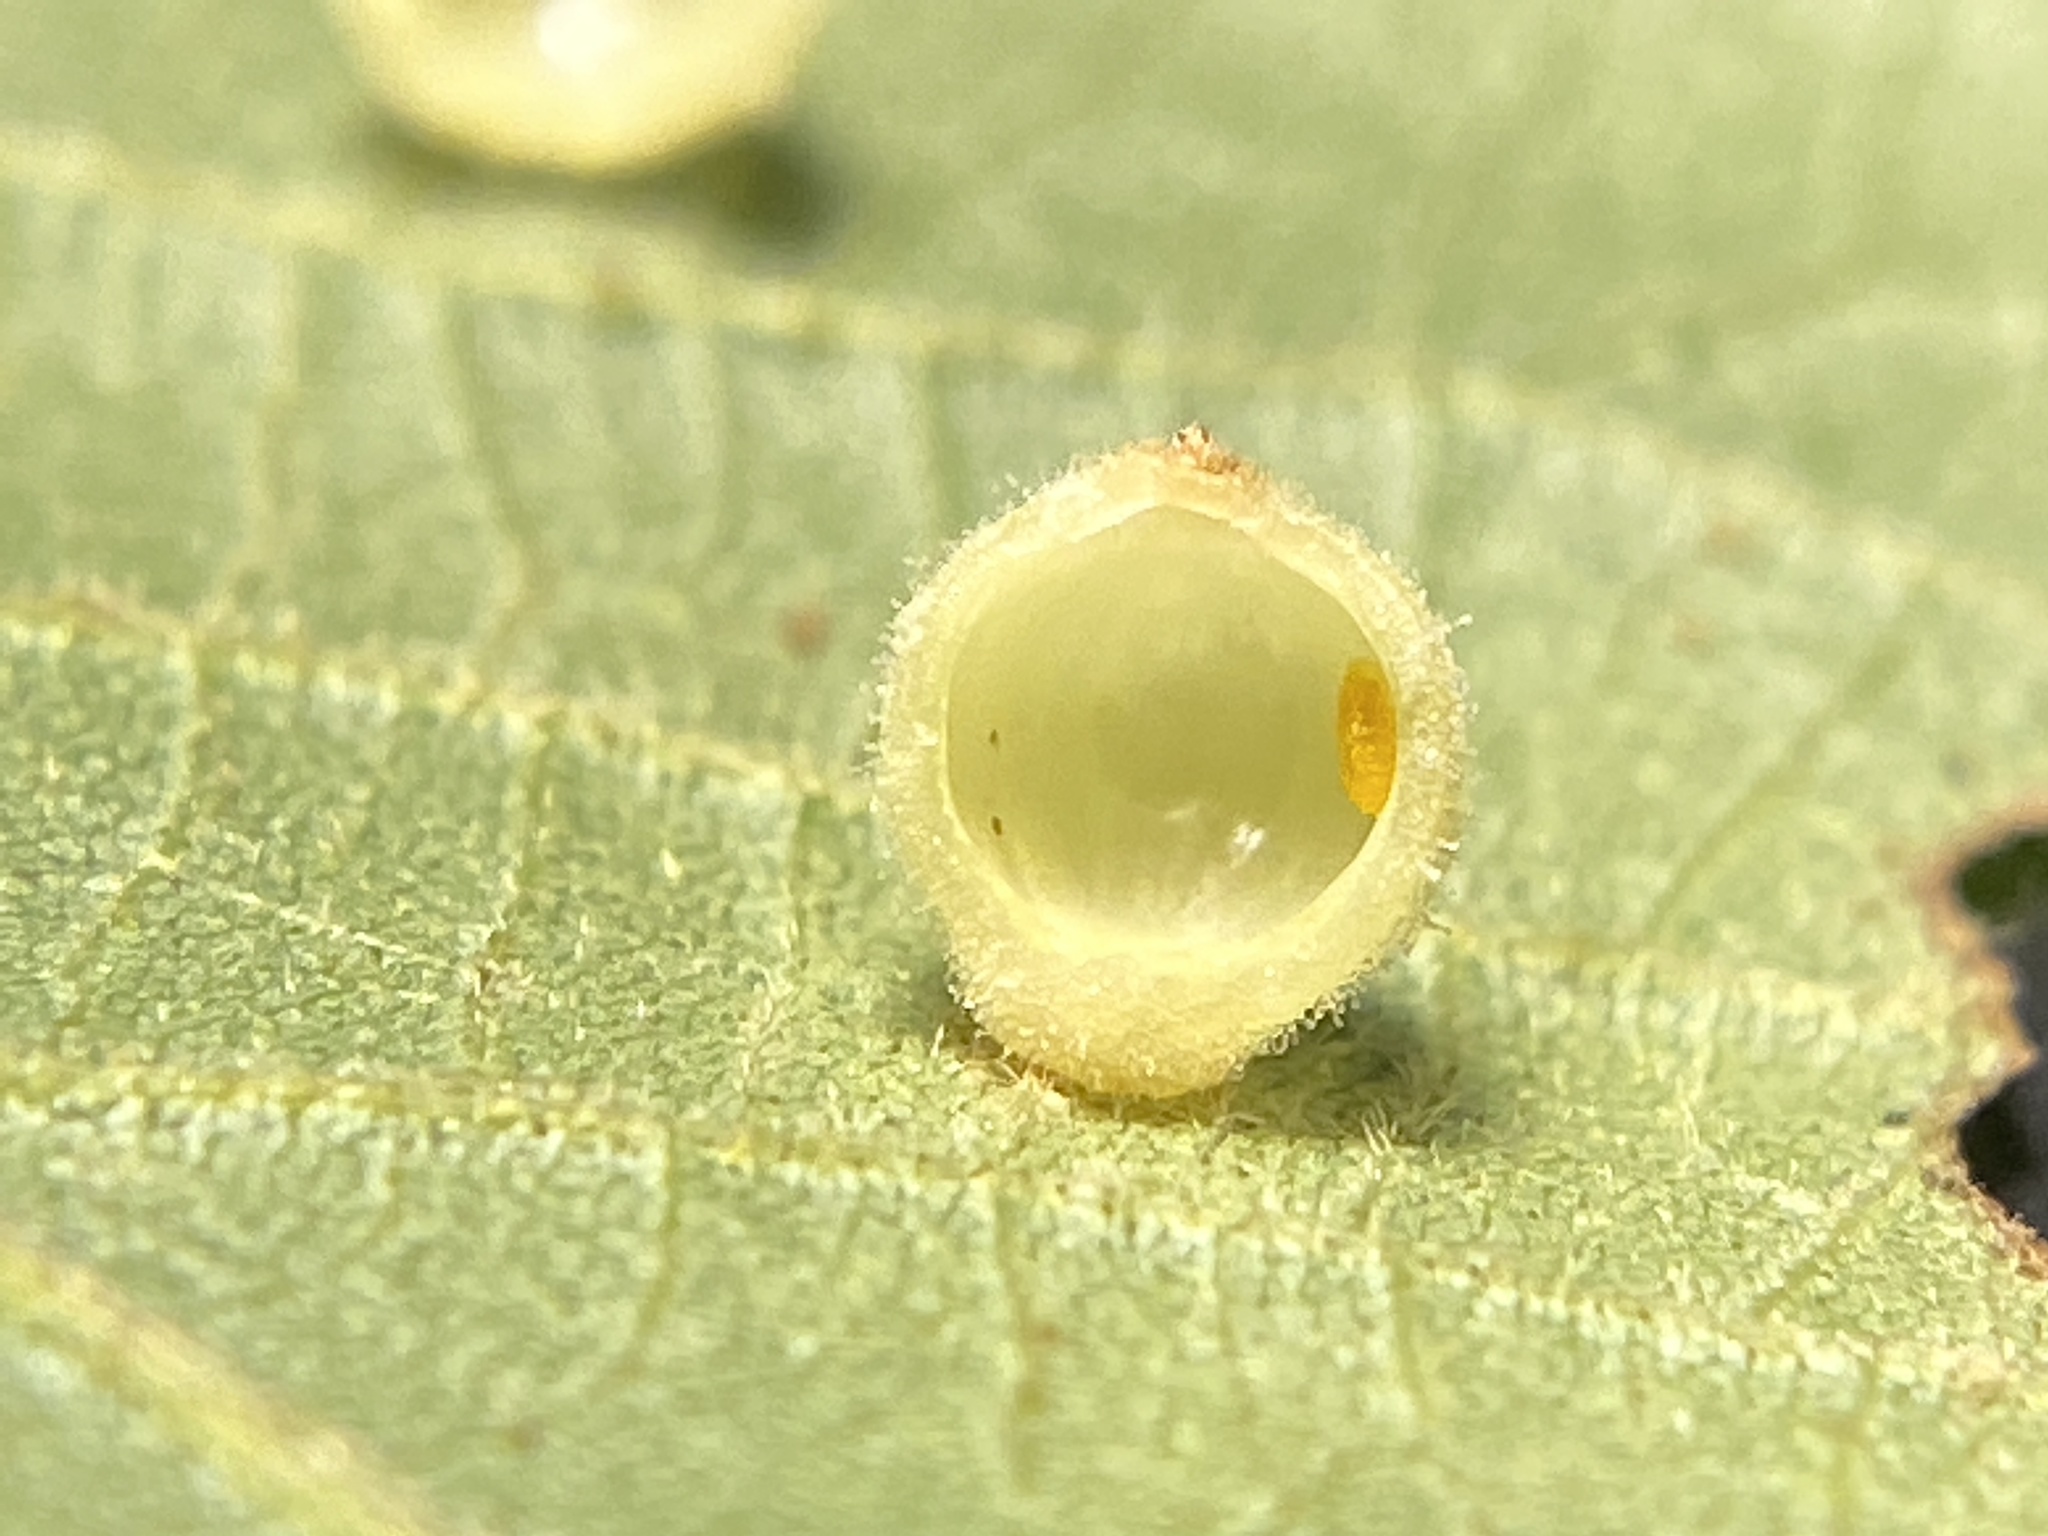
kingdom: Animalia
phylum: Arthropoda
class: Insecta
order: Diptera
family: Cecidomyiidae
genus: Caryomyia
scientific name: Caryomyia tuberidolium
